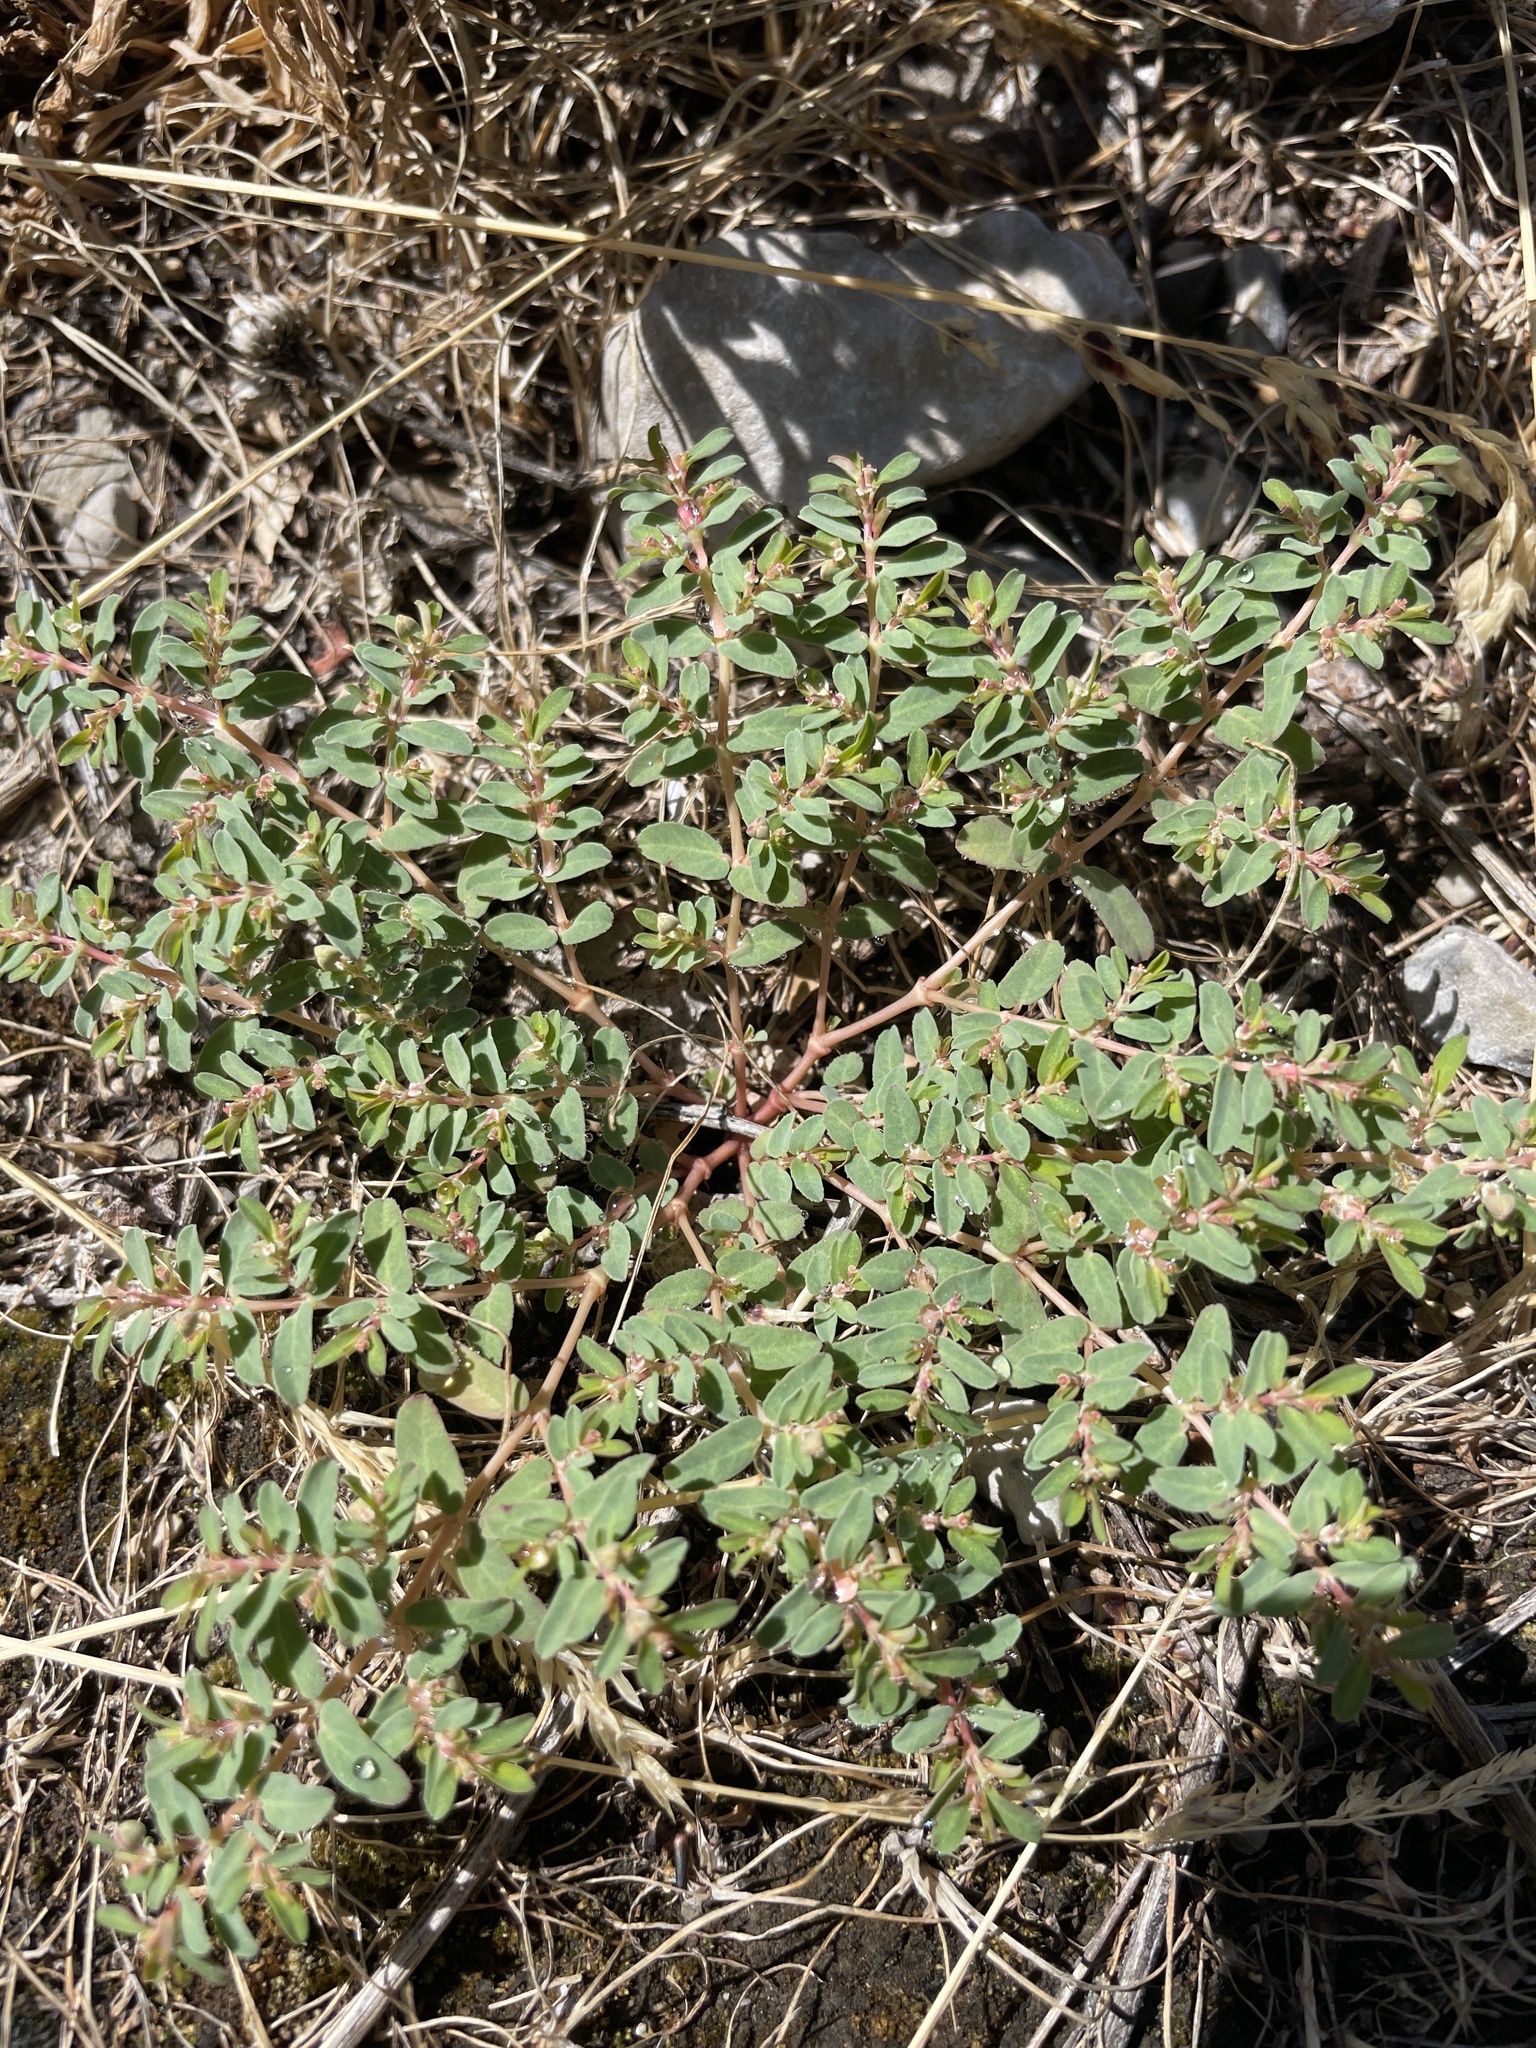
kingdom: Plantae
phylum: Tracheophyta
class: Magnoliopsida
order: Malpighiales
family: Euphorbiaceae
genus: Euphorbia
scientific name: Euphorbia glyptosperma
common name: Corrugate-seeded spurge
